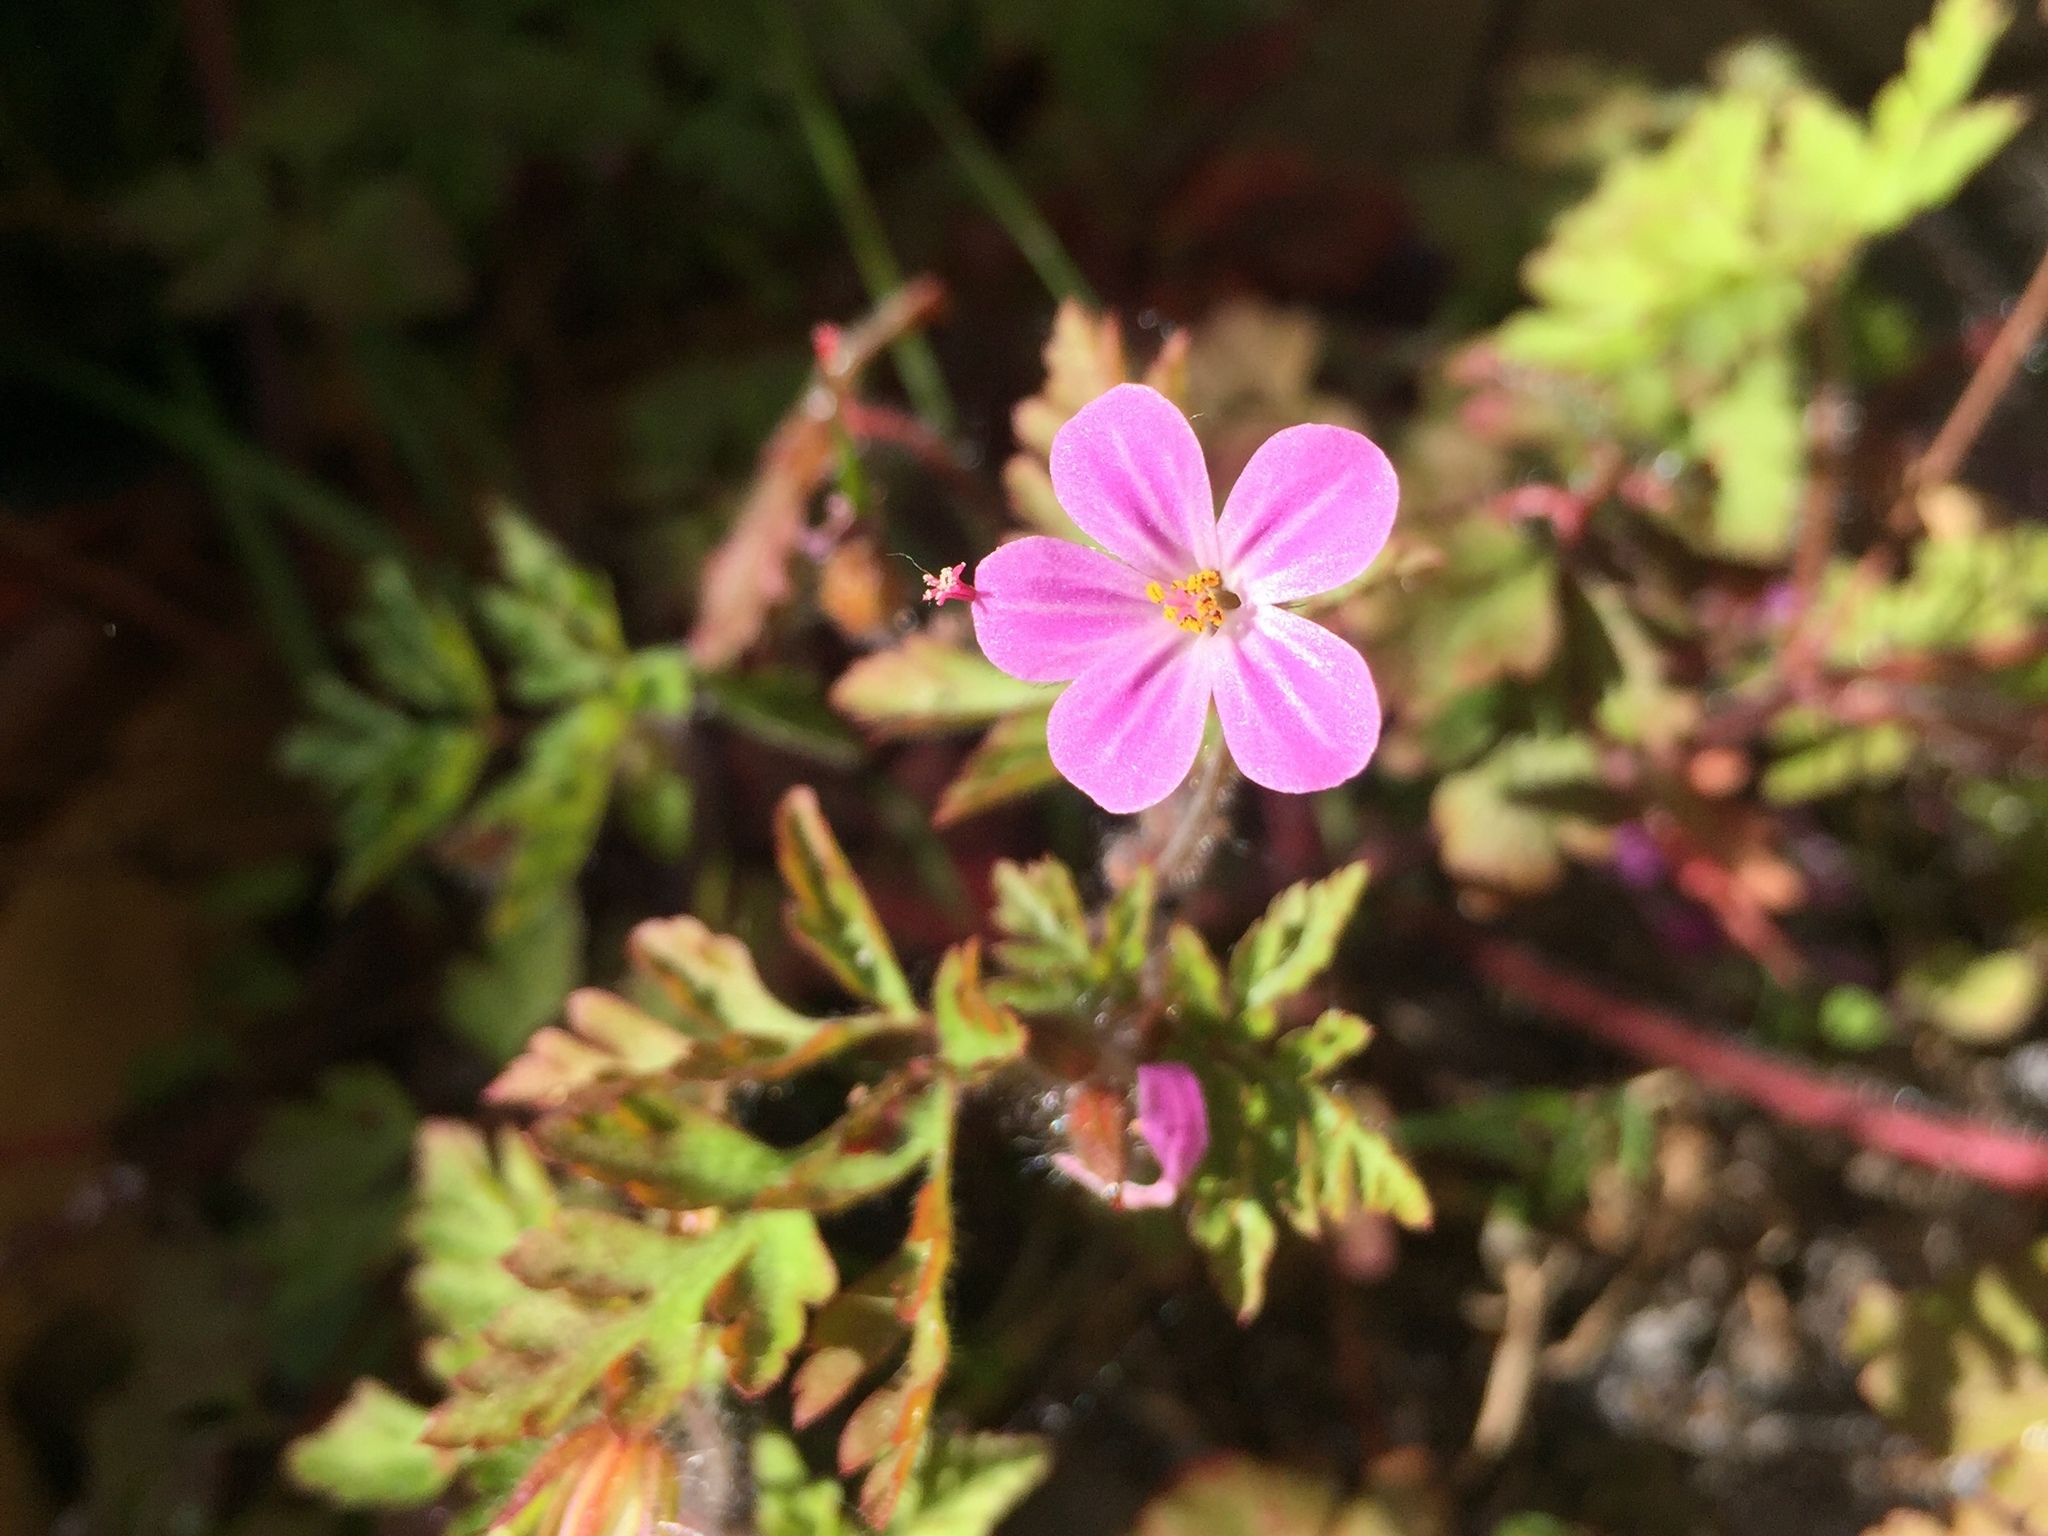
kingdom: Plantae
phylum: Tracheophyta
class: Magnoliopsida
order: Geraniales
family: Geraniaceae
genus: Geranium
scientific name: Geranium robertianum
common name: Herb-robert
